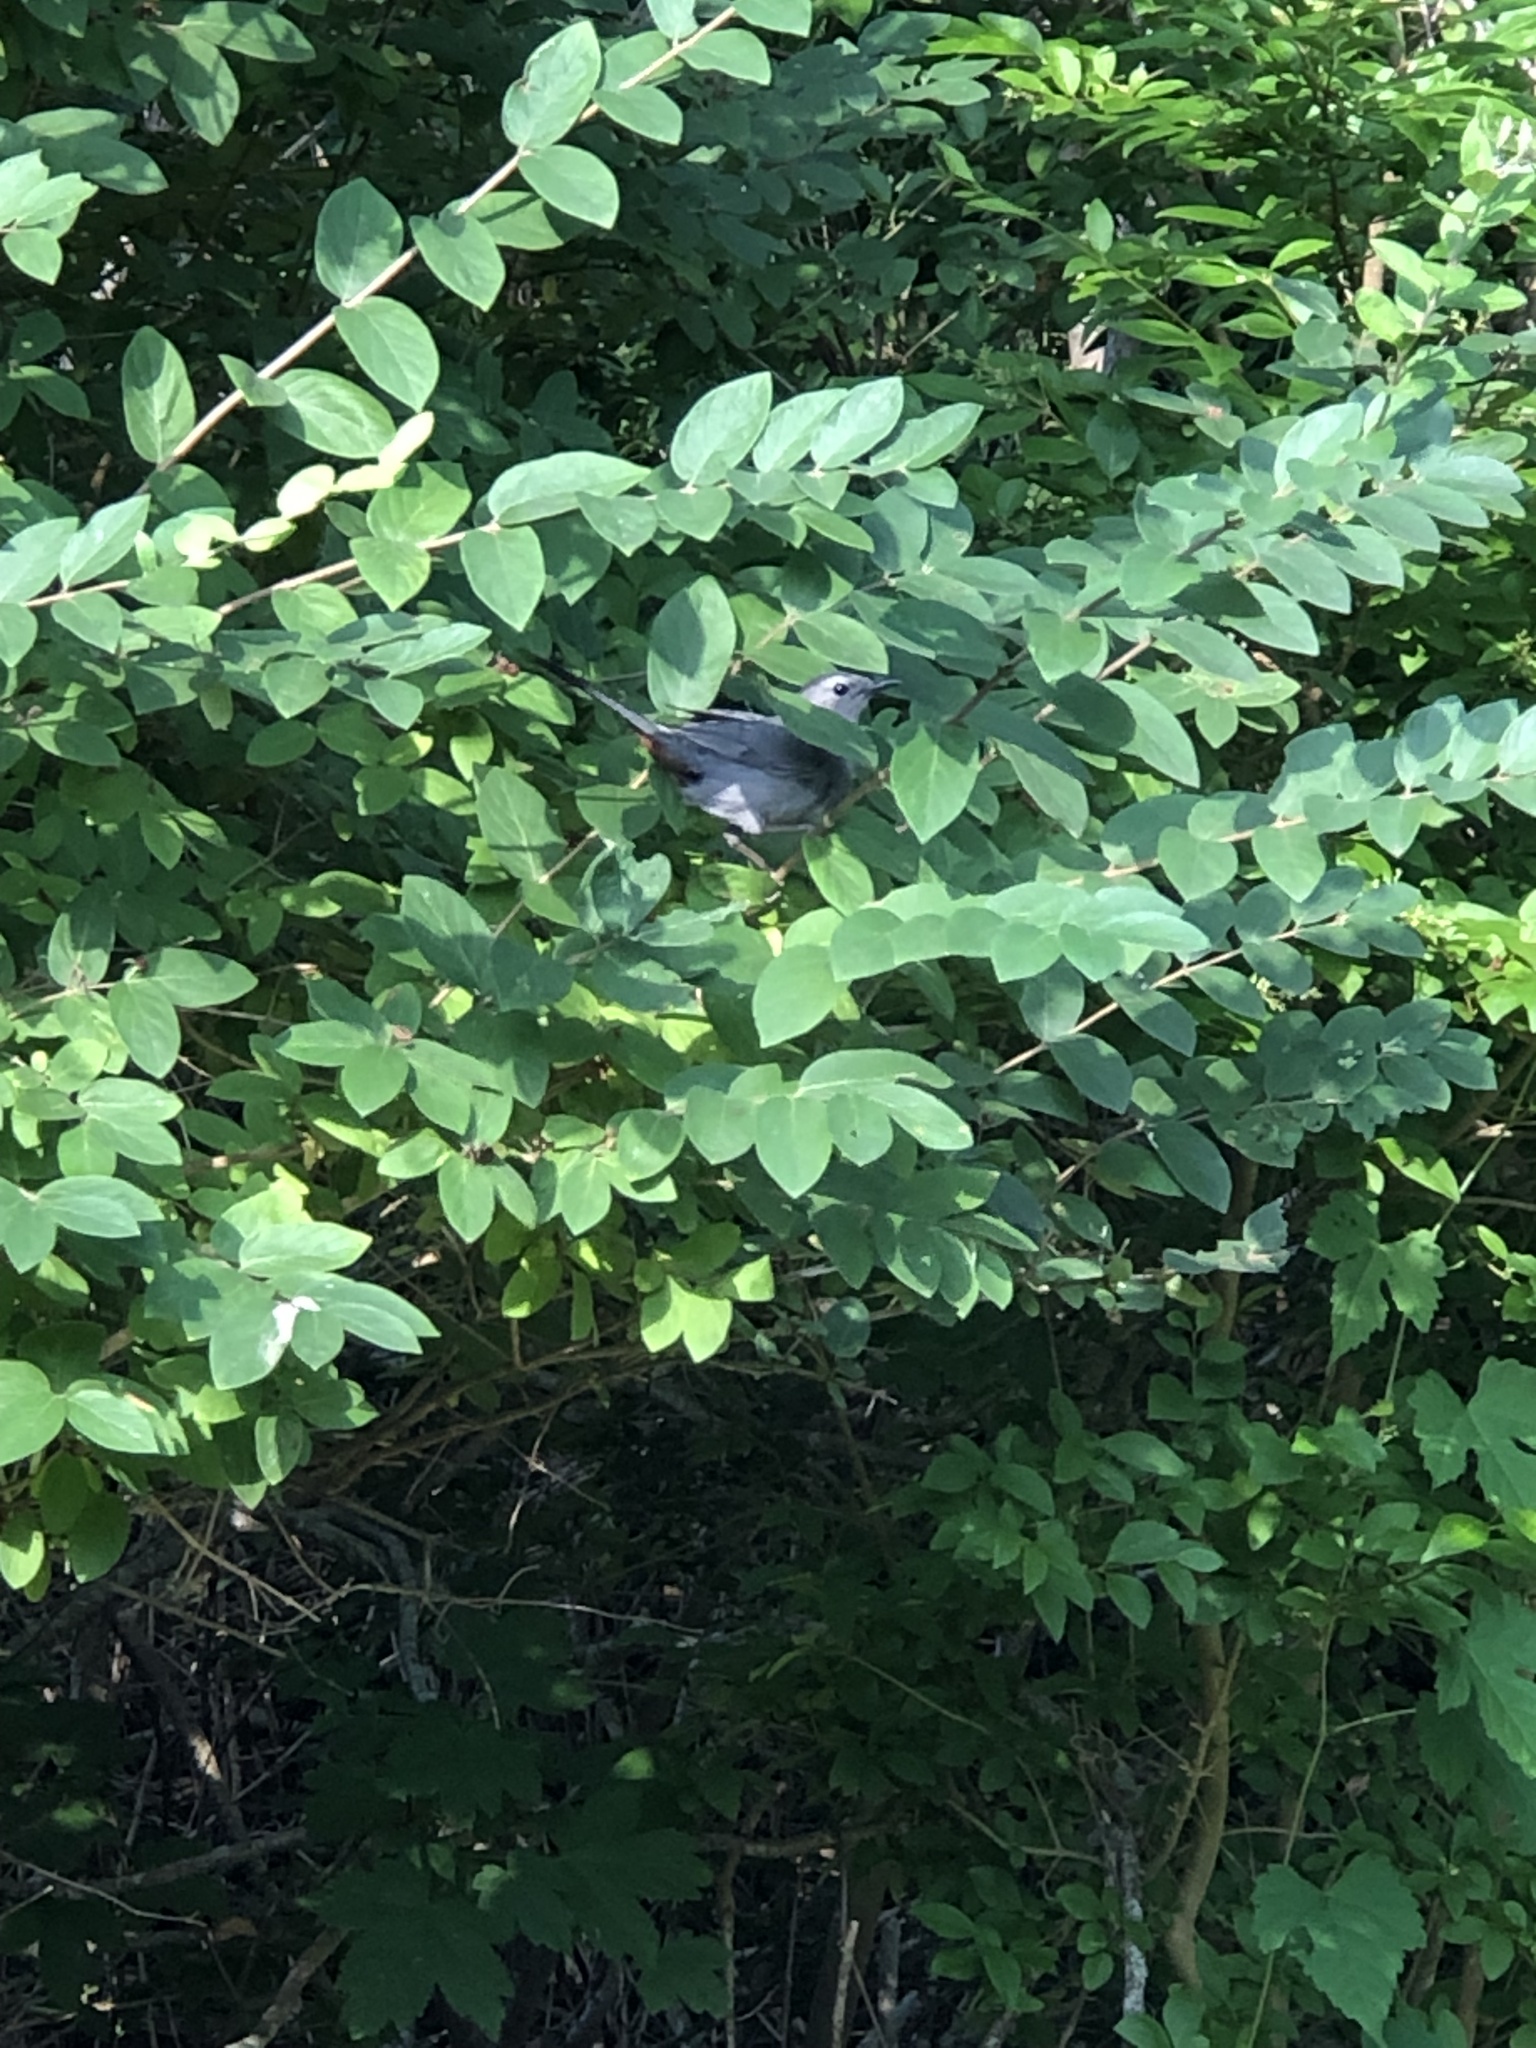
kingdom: Animalia
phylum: Chordata
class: Aves
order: Passeriformes
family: Mimidae
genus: Dumetella
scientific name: Dumetella carolinensis
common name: Gray catbird
